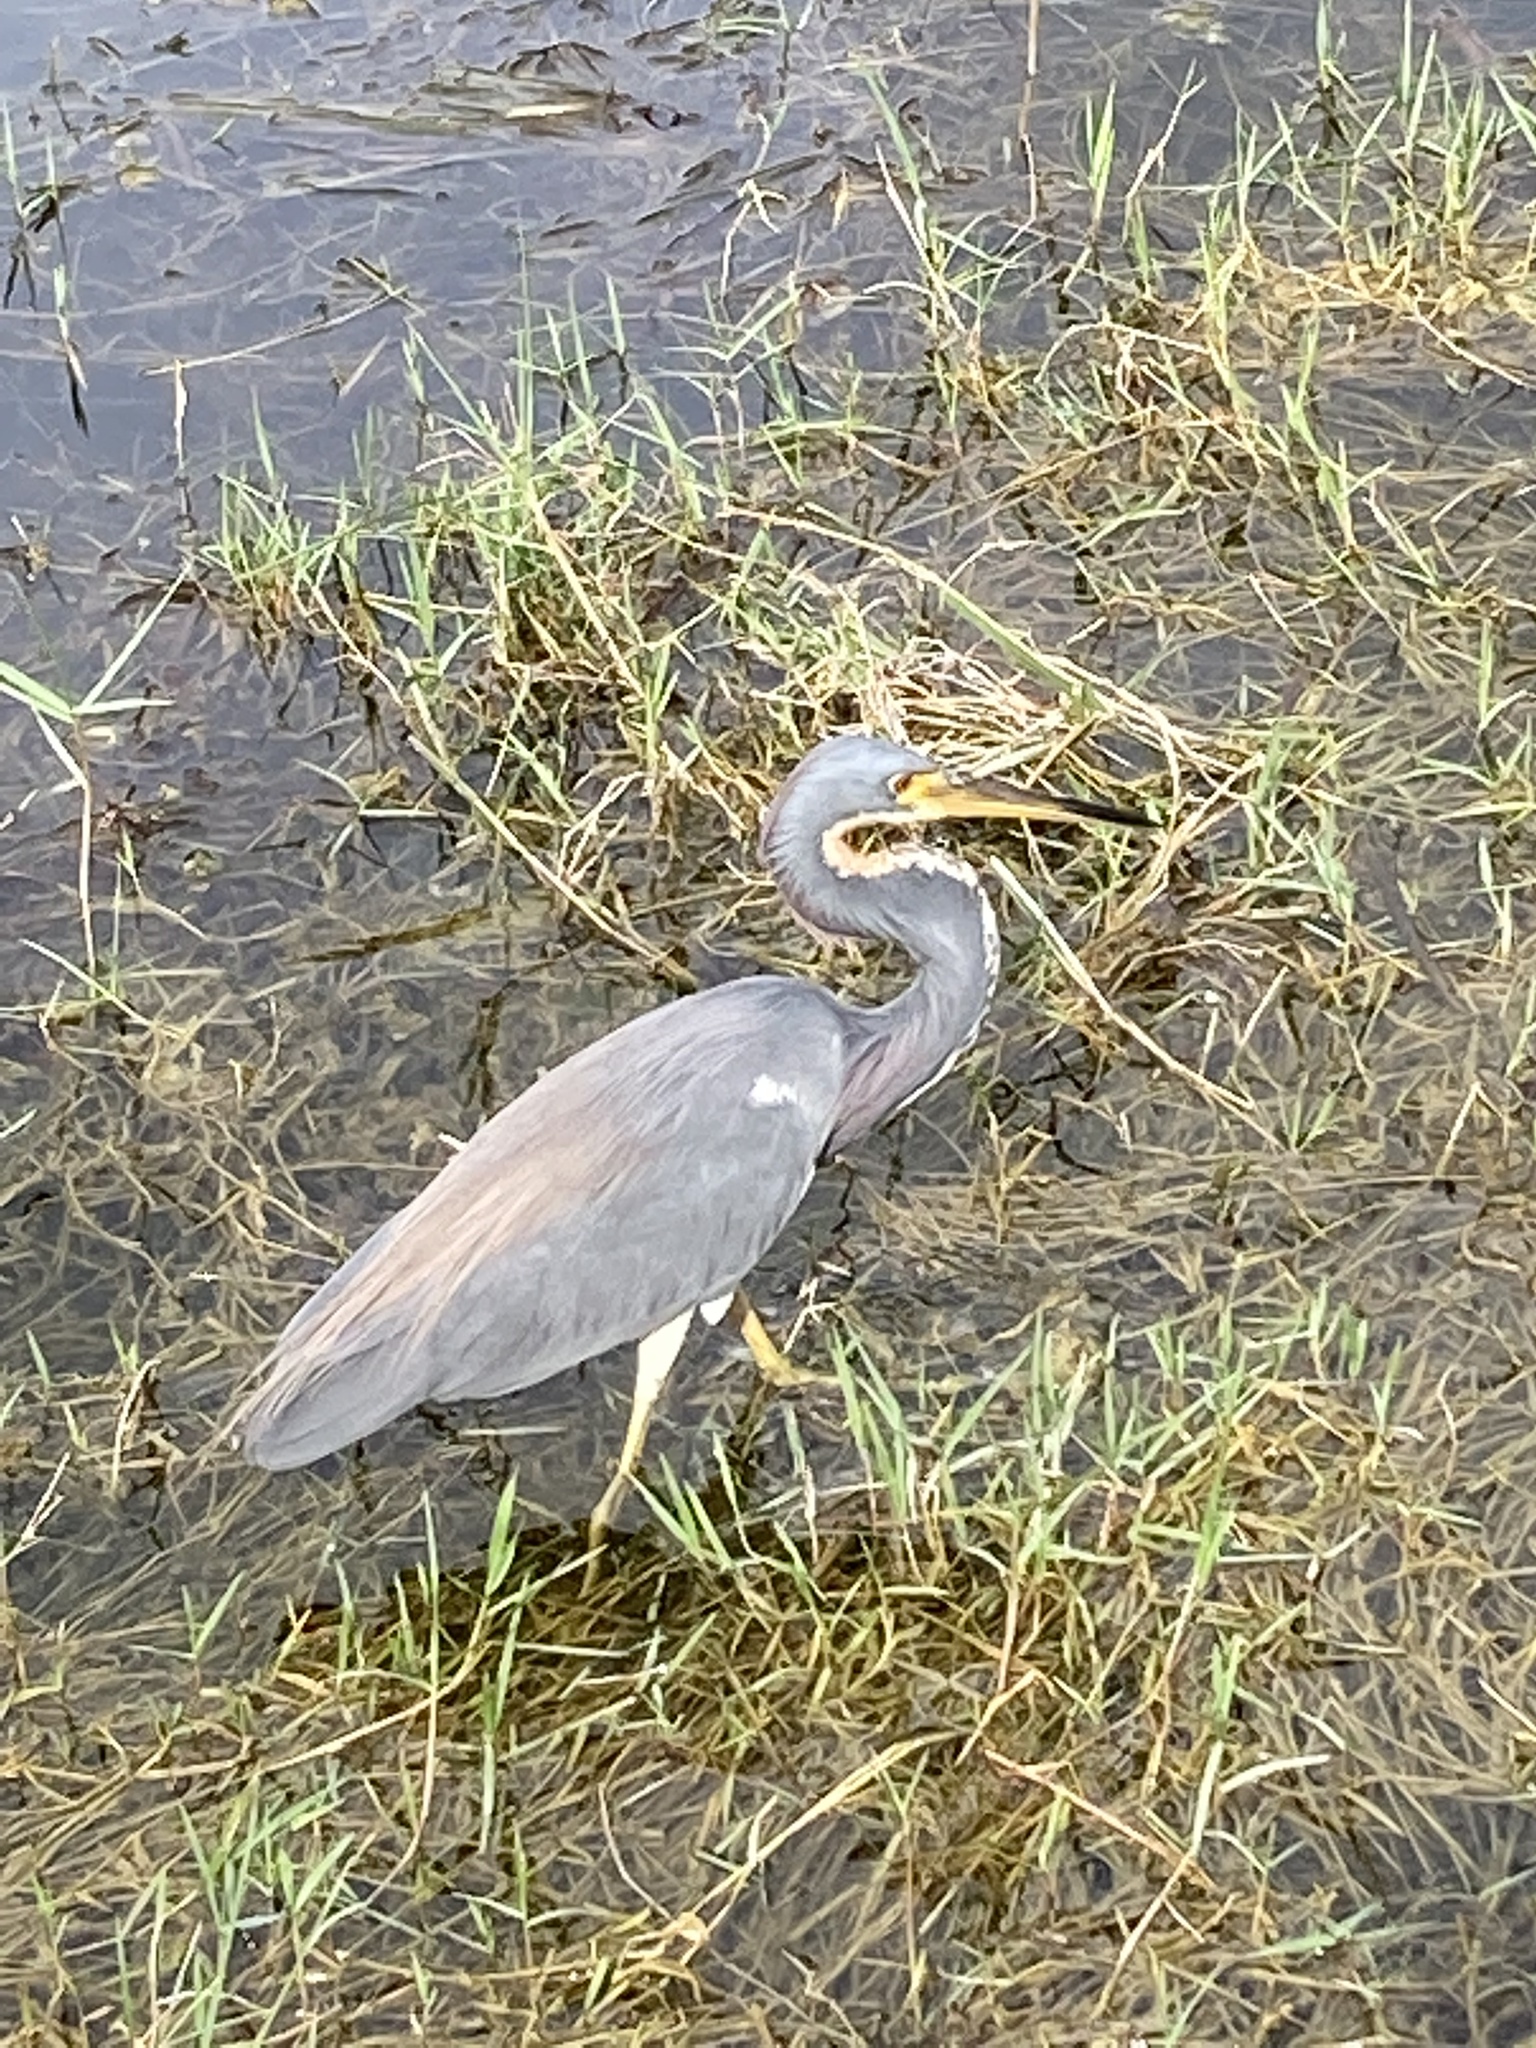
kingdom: Animalia
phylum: Chordata
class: Aves
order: Pelecaniformes
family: Ardeidae
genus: Egretta
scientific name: Egretta tricolor
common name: Tricolored heron
